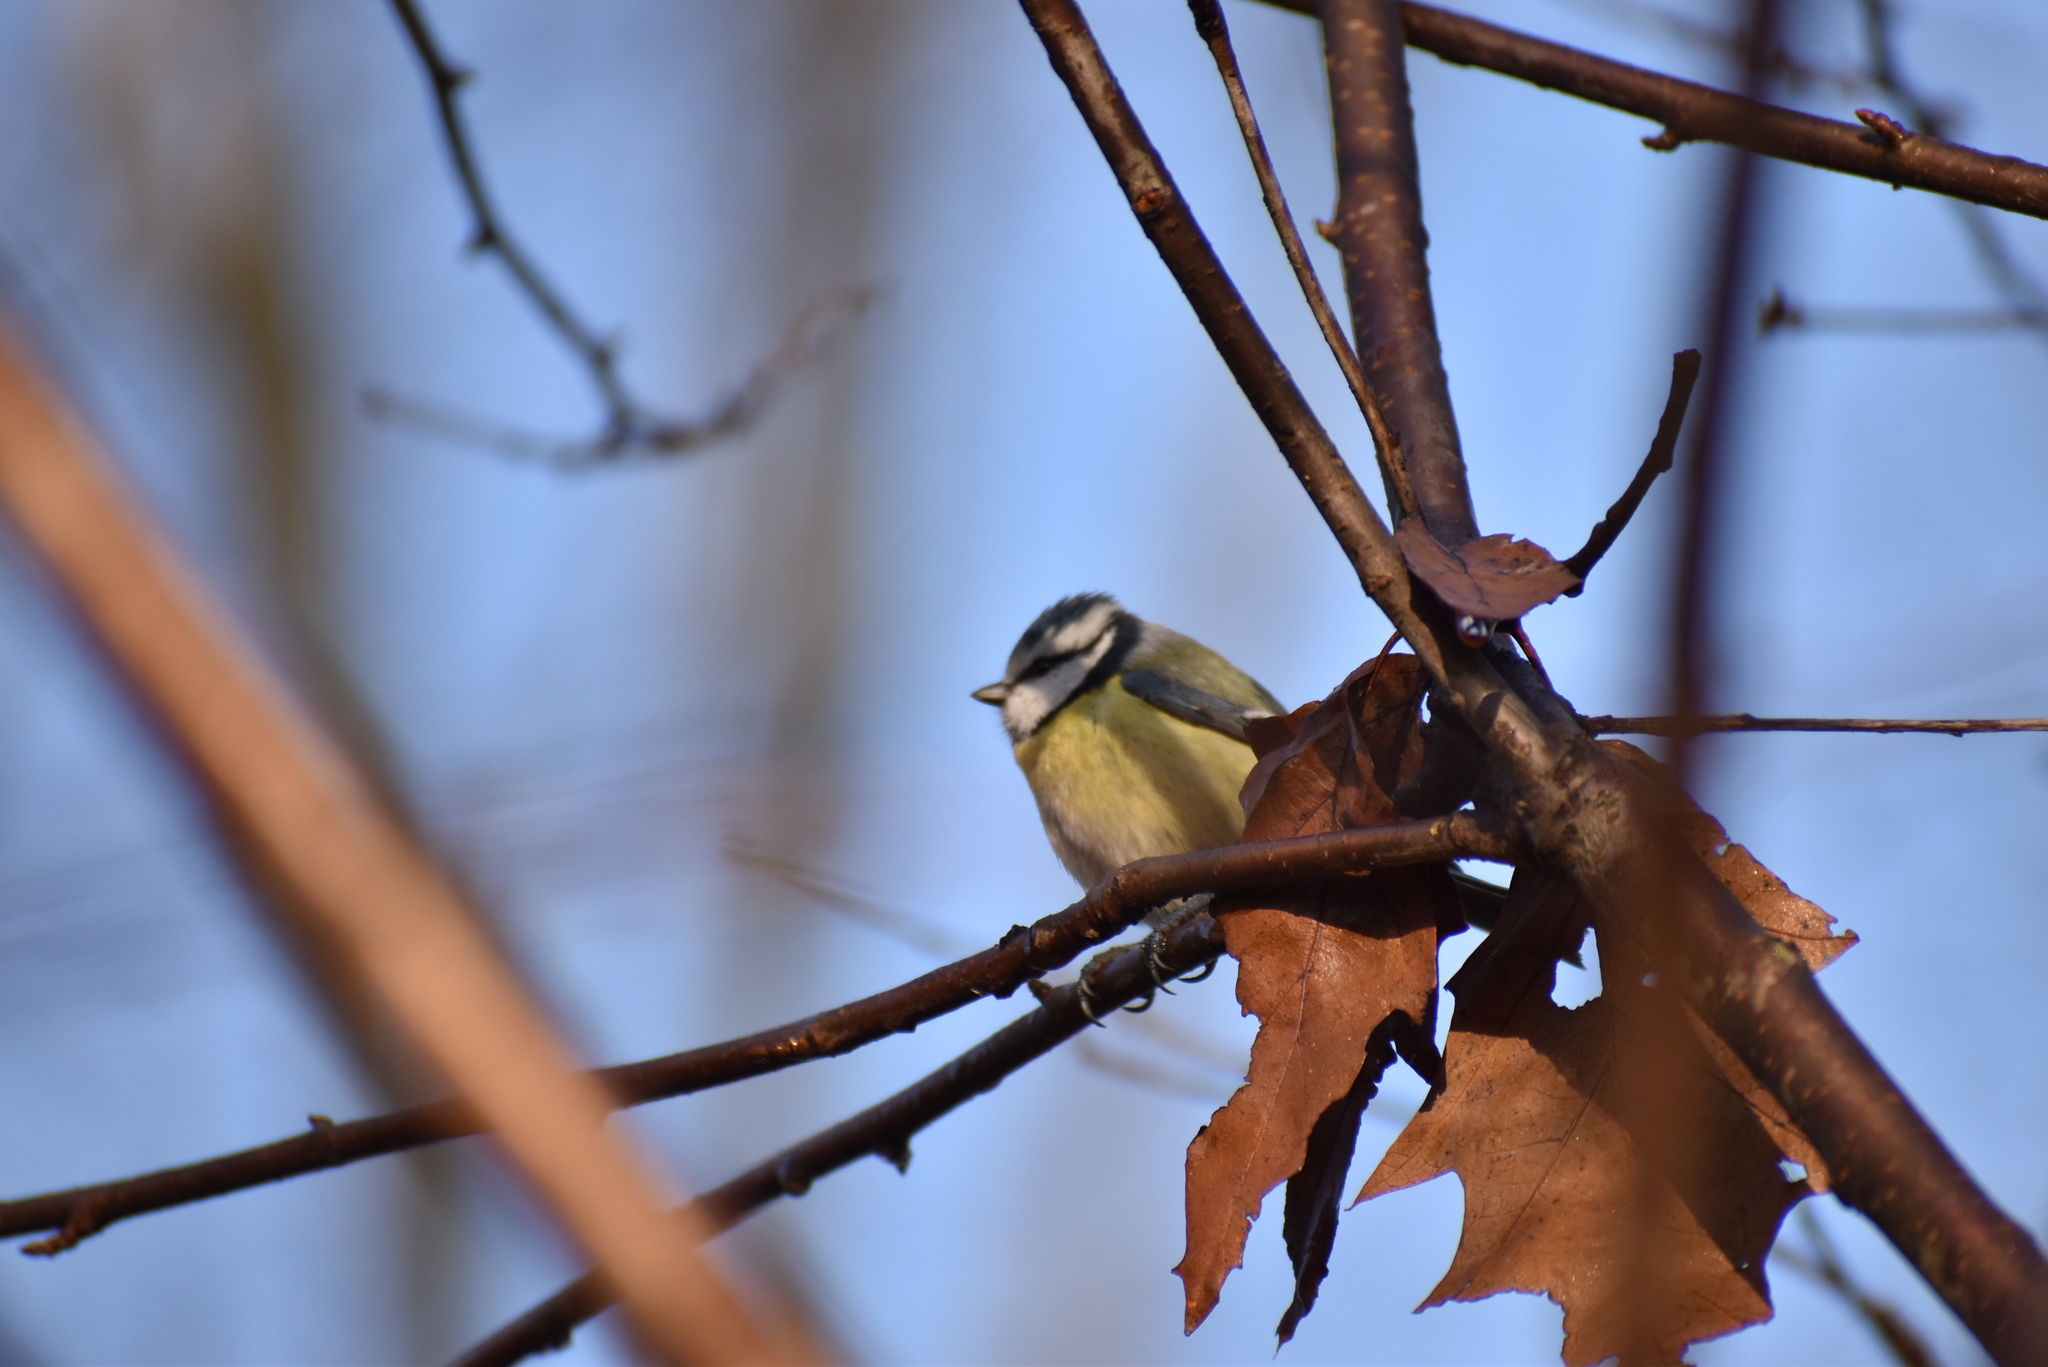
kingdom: Animalia
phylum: Chordata
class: Aves
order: Passeriformes
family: Paridae
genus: Cyanistes
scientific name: Cyanistes caeruleus
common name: Eurasian blue tit
